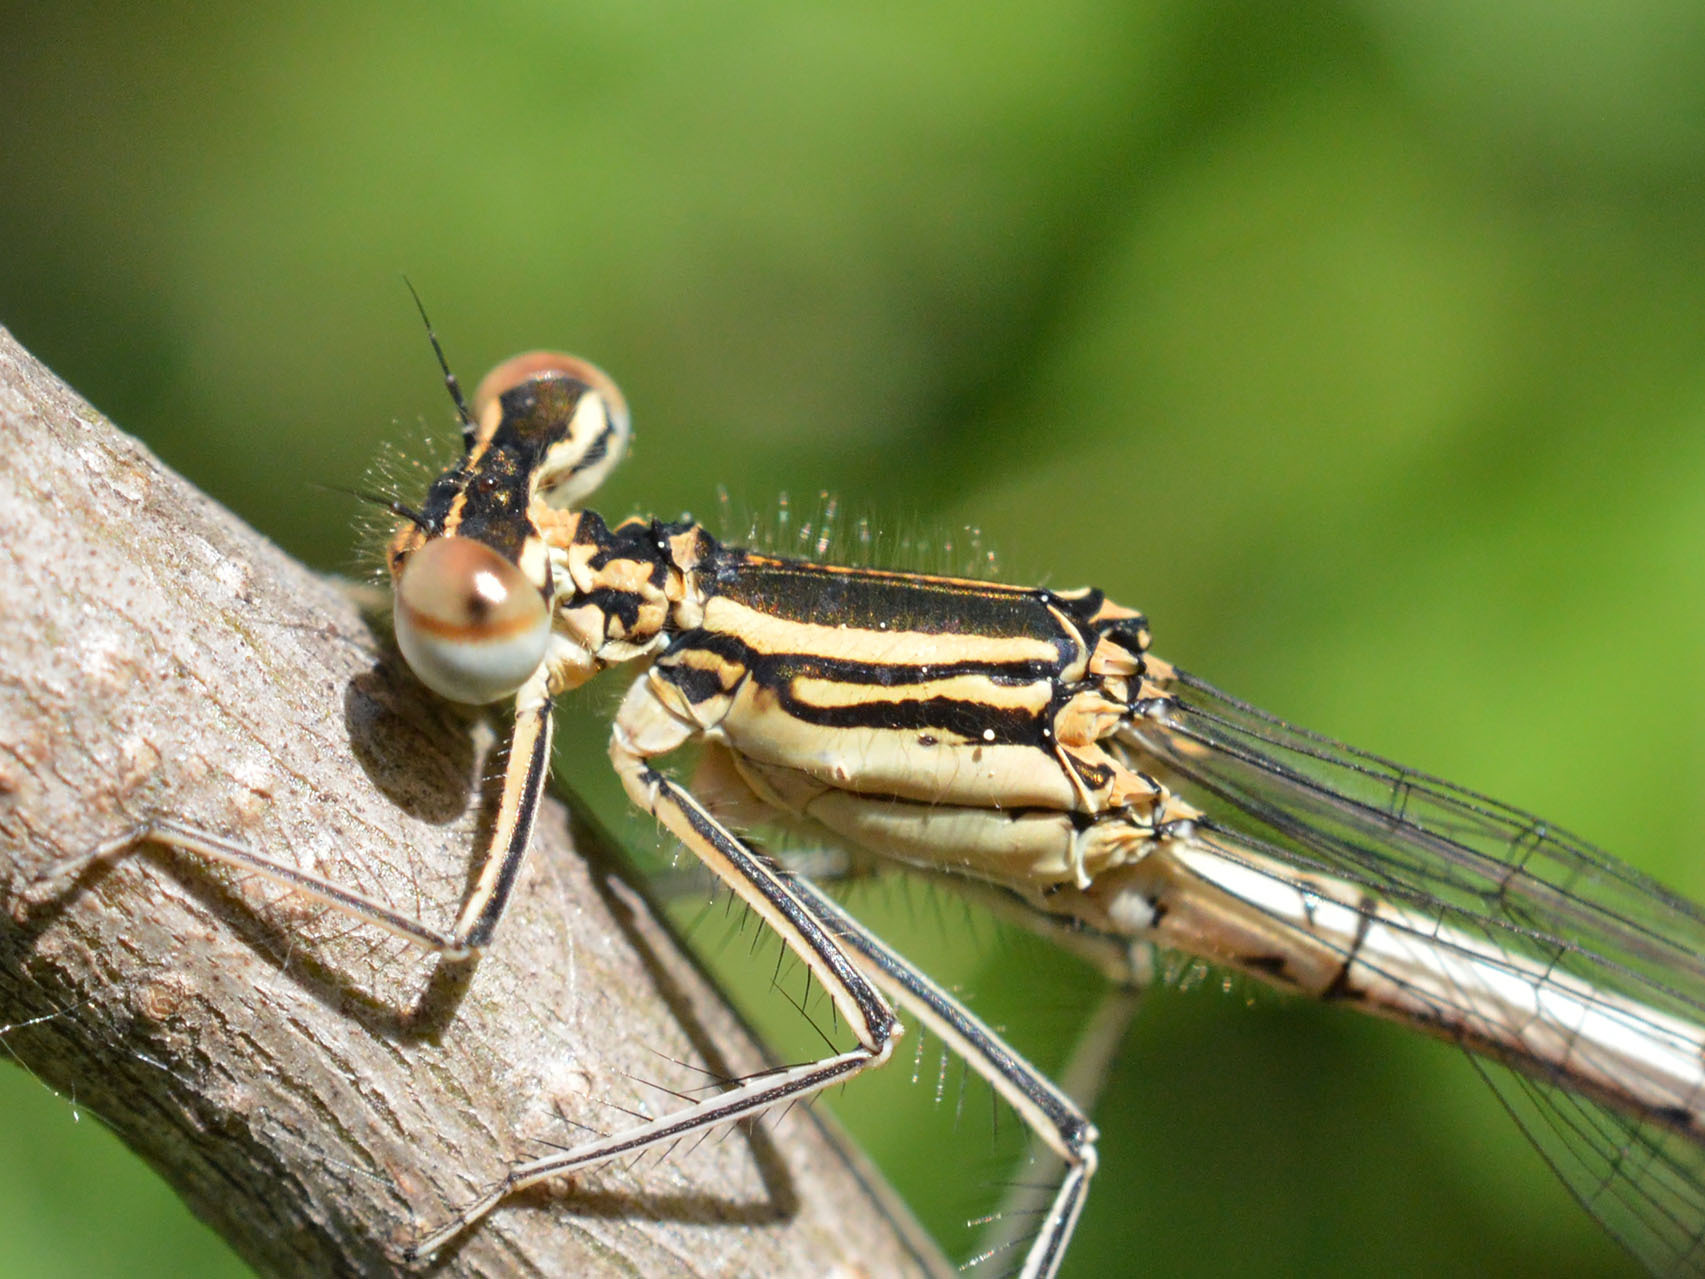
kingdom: Animalia
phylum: Arthropoda
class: Insecta
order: Odonata
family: Platycnemididae
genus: Platycnemis
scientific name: Platycnemis pennipes
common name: White-legged damselfly
